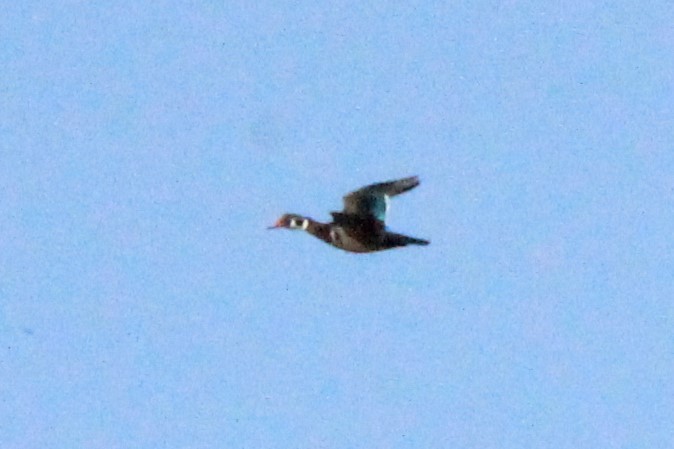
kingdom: Animalia
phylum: Chordata
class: Aves
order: Anseriformes
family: Anatidae
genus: Aix
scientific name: Aix sponsa
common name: Wood duck
